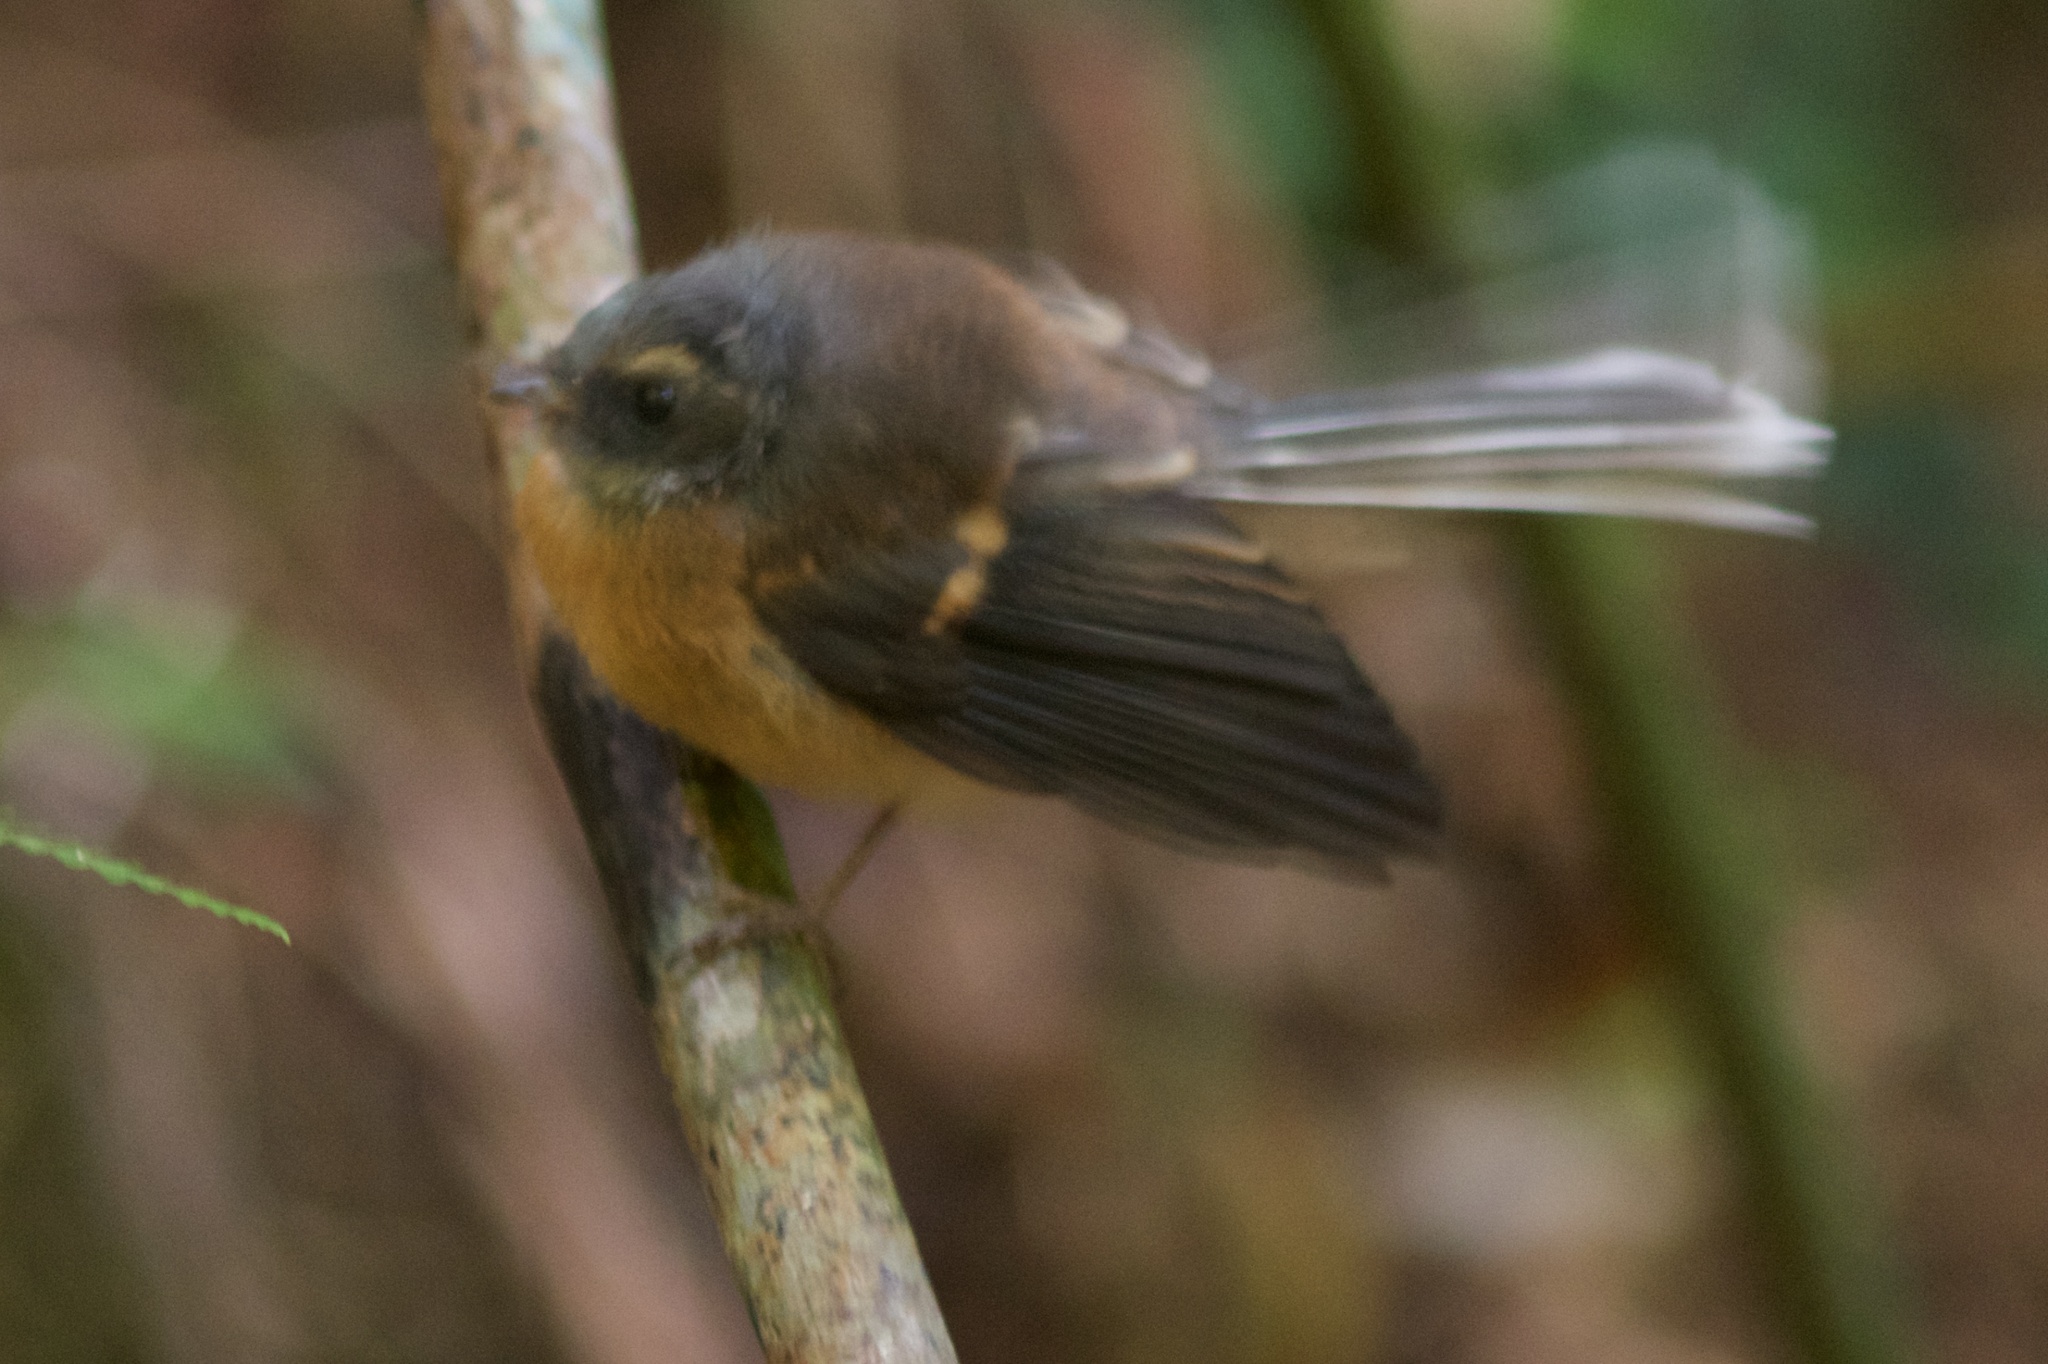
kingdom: Animalia
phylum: Chordata
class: Aves
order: Passeriformes
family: Rhipiduridae
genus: Rhipidura
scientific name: Rhipidura fuliginosa
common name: New zealand fantail
